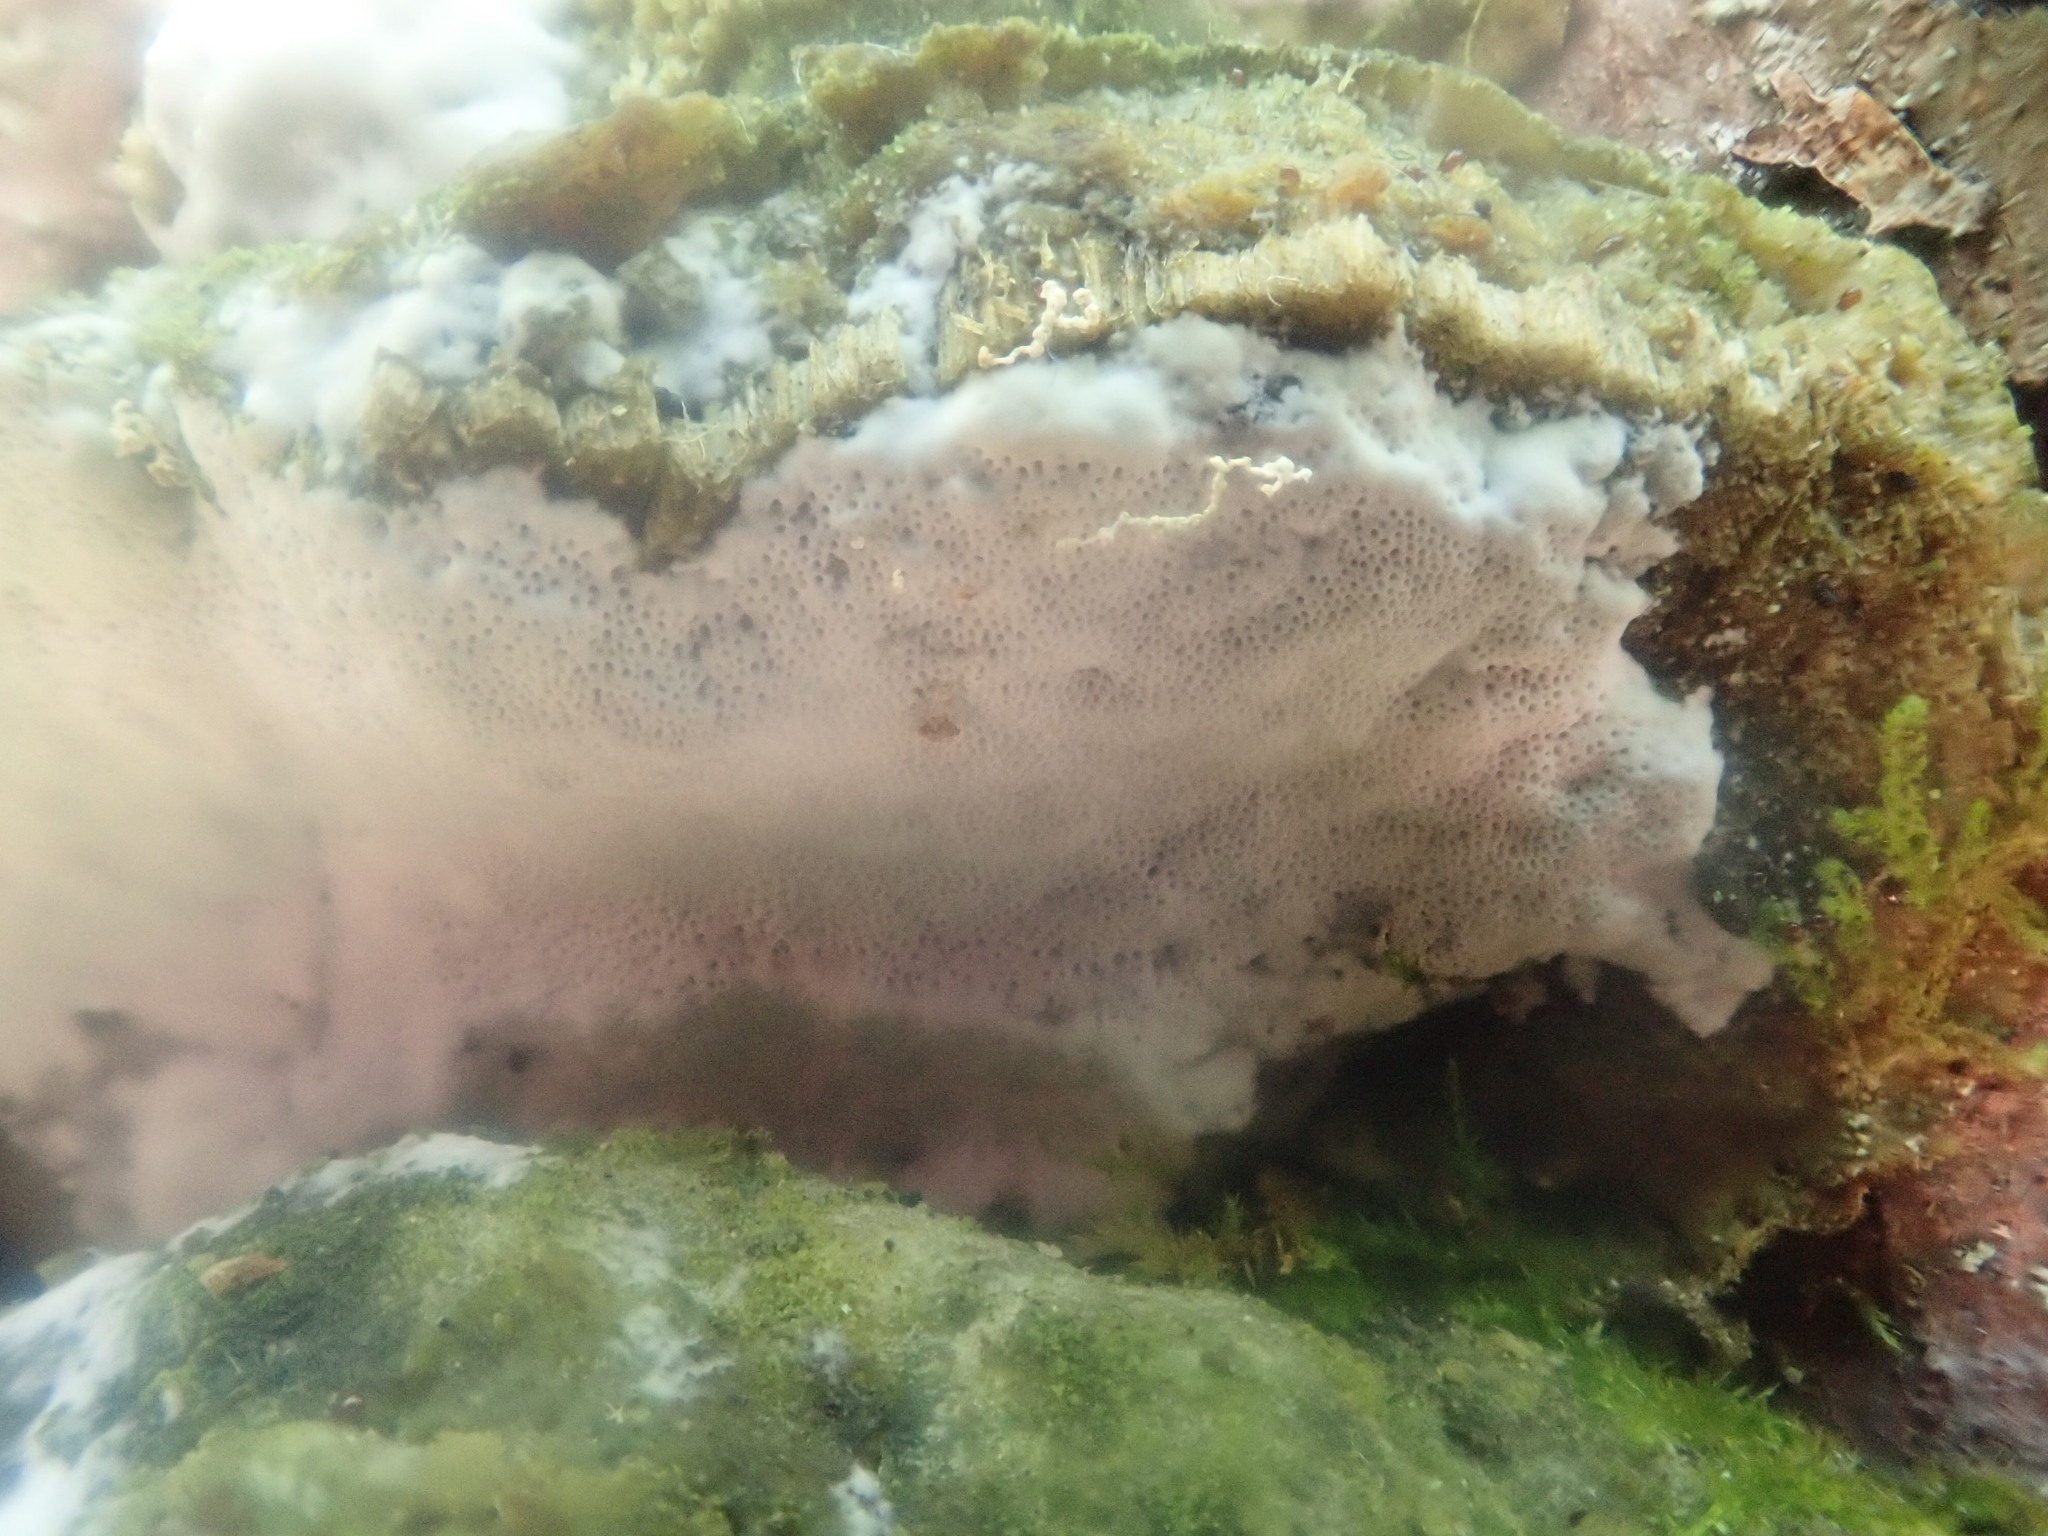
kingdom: Fungi
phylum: Basidiomycota
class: Agaricomycetes
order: Hymenochaetales
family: Oxyporaceae
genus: Oxyporus
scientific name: Oxyporus populinus
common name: Poplar bracket
